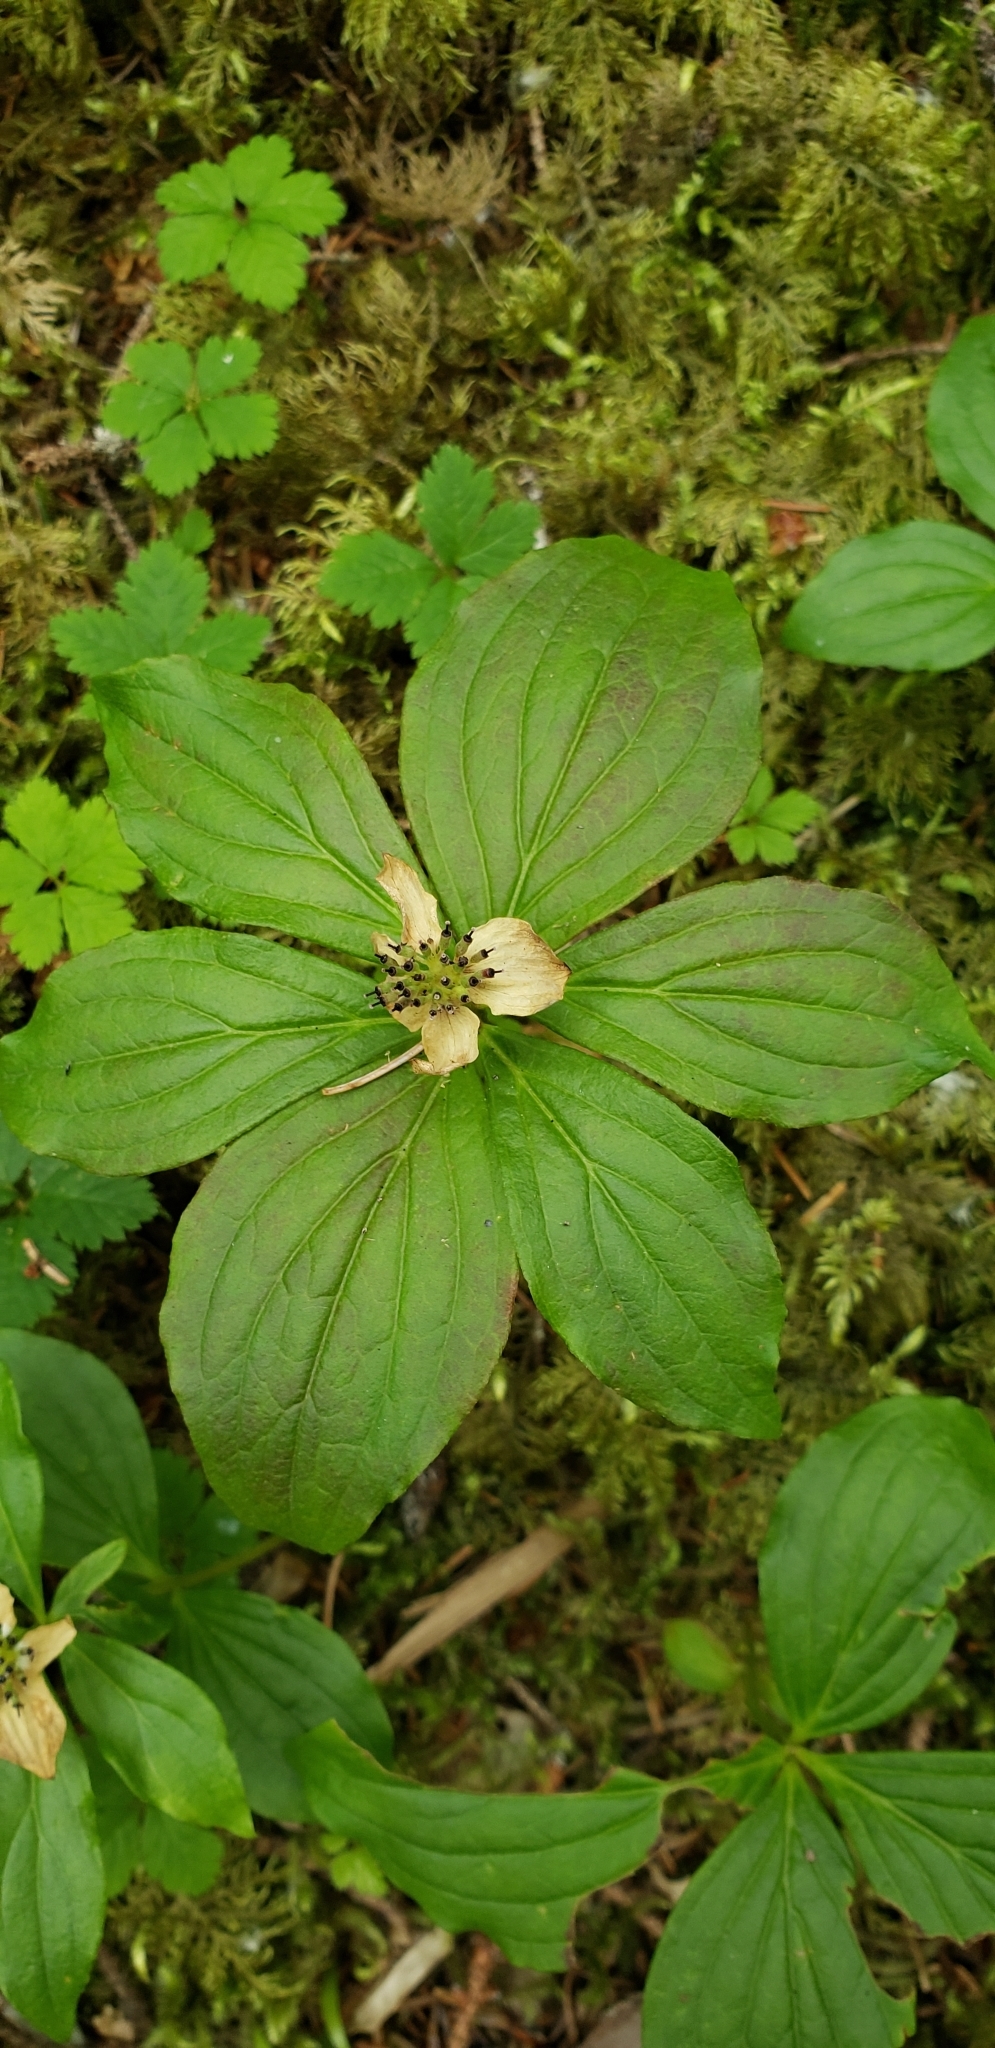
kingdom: Plantae
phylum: Tracheophyta
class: Magnoliopsida
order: Cornales
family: Cornaceae
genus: Cornus
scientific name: Cornus unalaschkensis
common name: Alaska bunchberry
